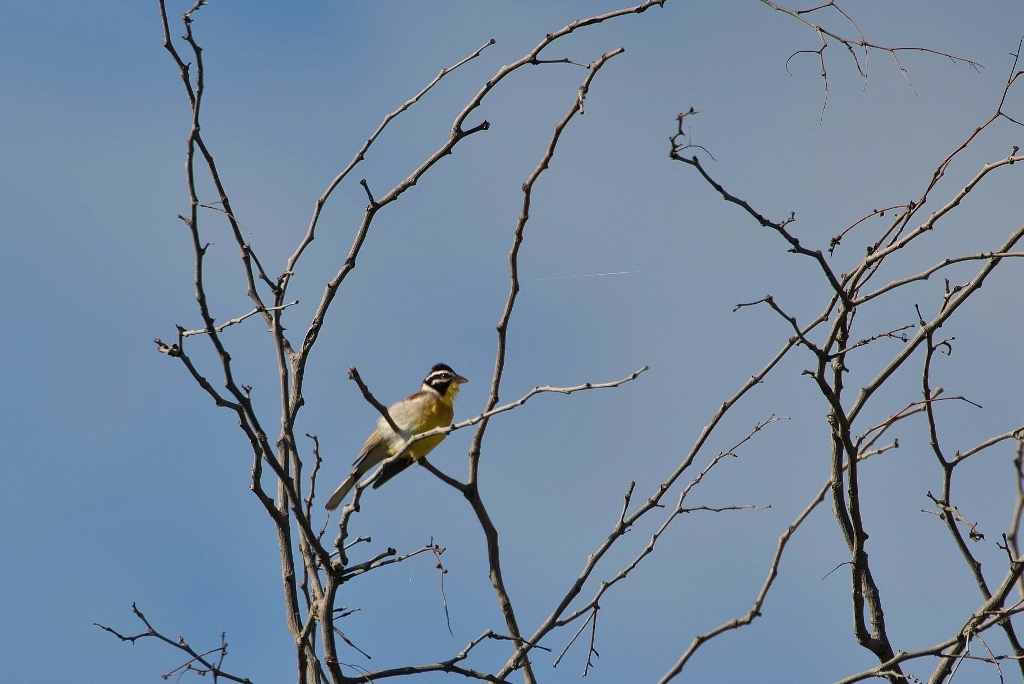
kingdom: Animalia
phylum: Chordata
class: Aves
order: Passeriformes
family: Emberizidae
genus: Emberiza
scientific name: Emberiza flaviventris
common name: Golden-breasted bunting
